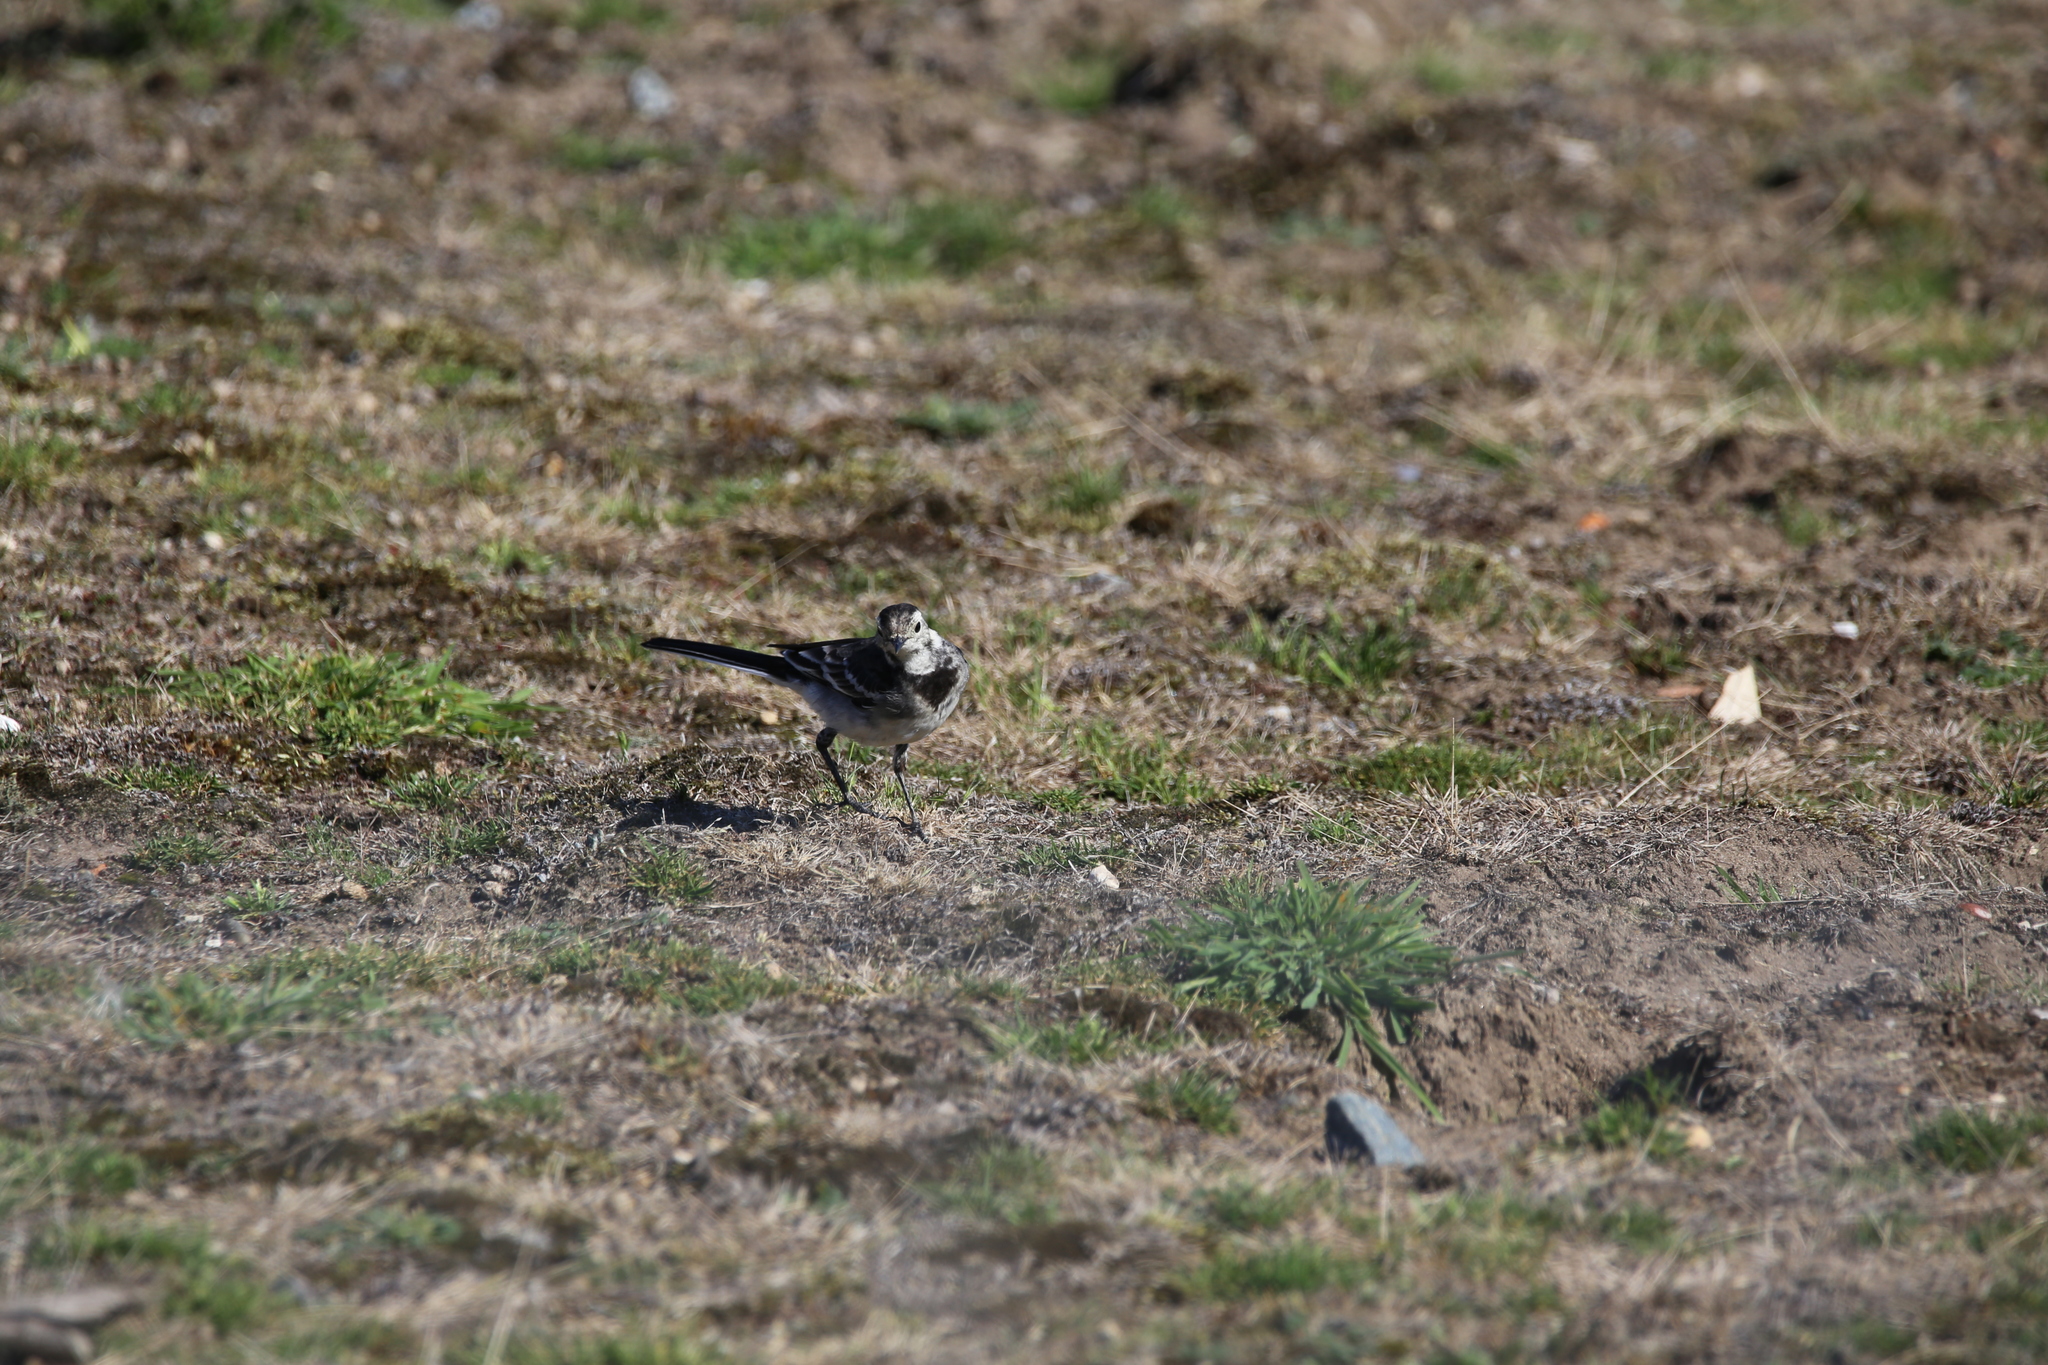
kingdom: Animalia
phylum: Chordata
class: Aves
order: Passeriformes
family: Motacillidae
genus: Motacilla
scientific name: Motacilla alba
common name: White wagtail
